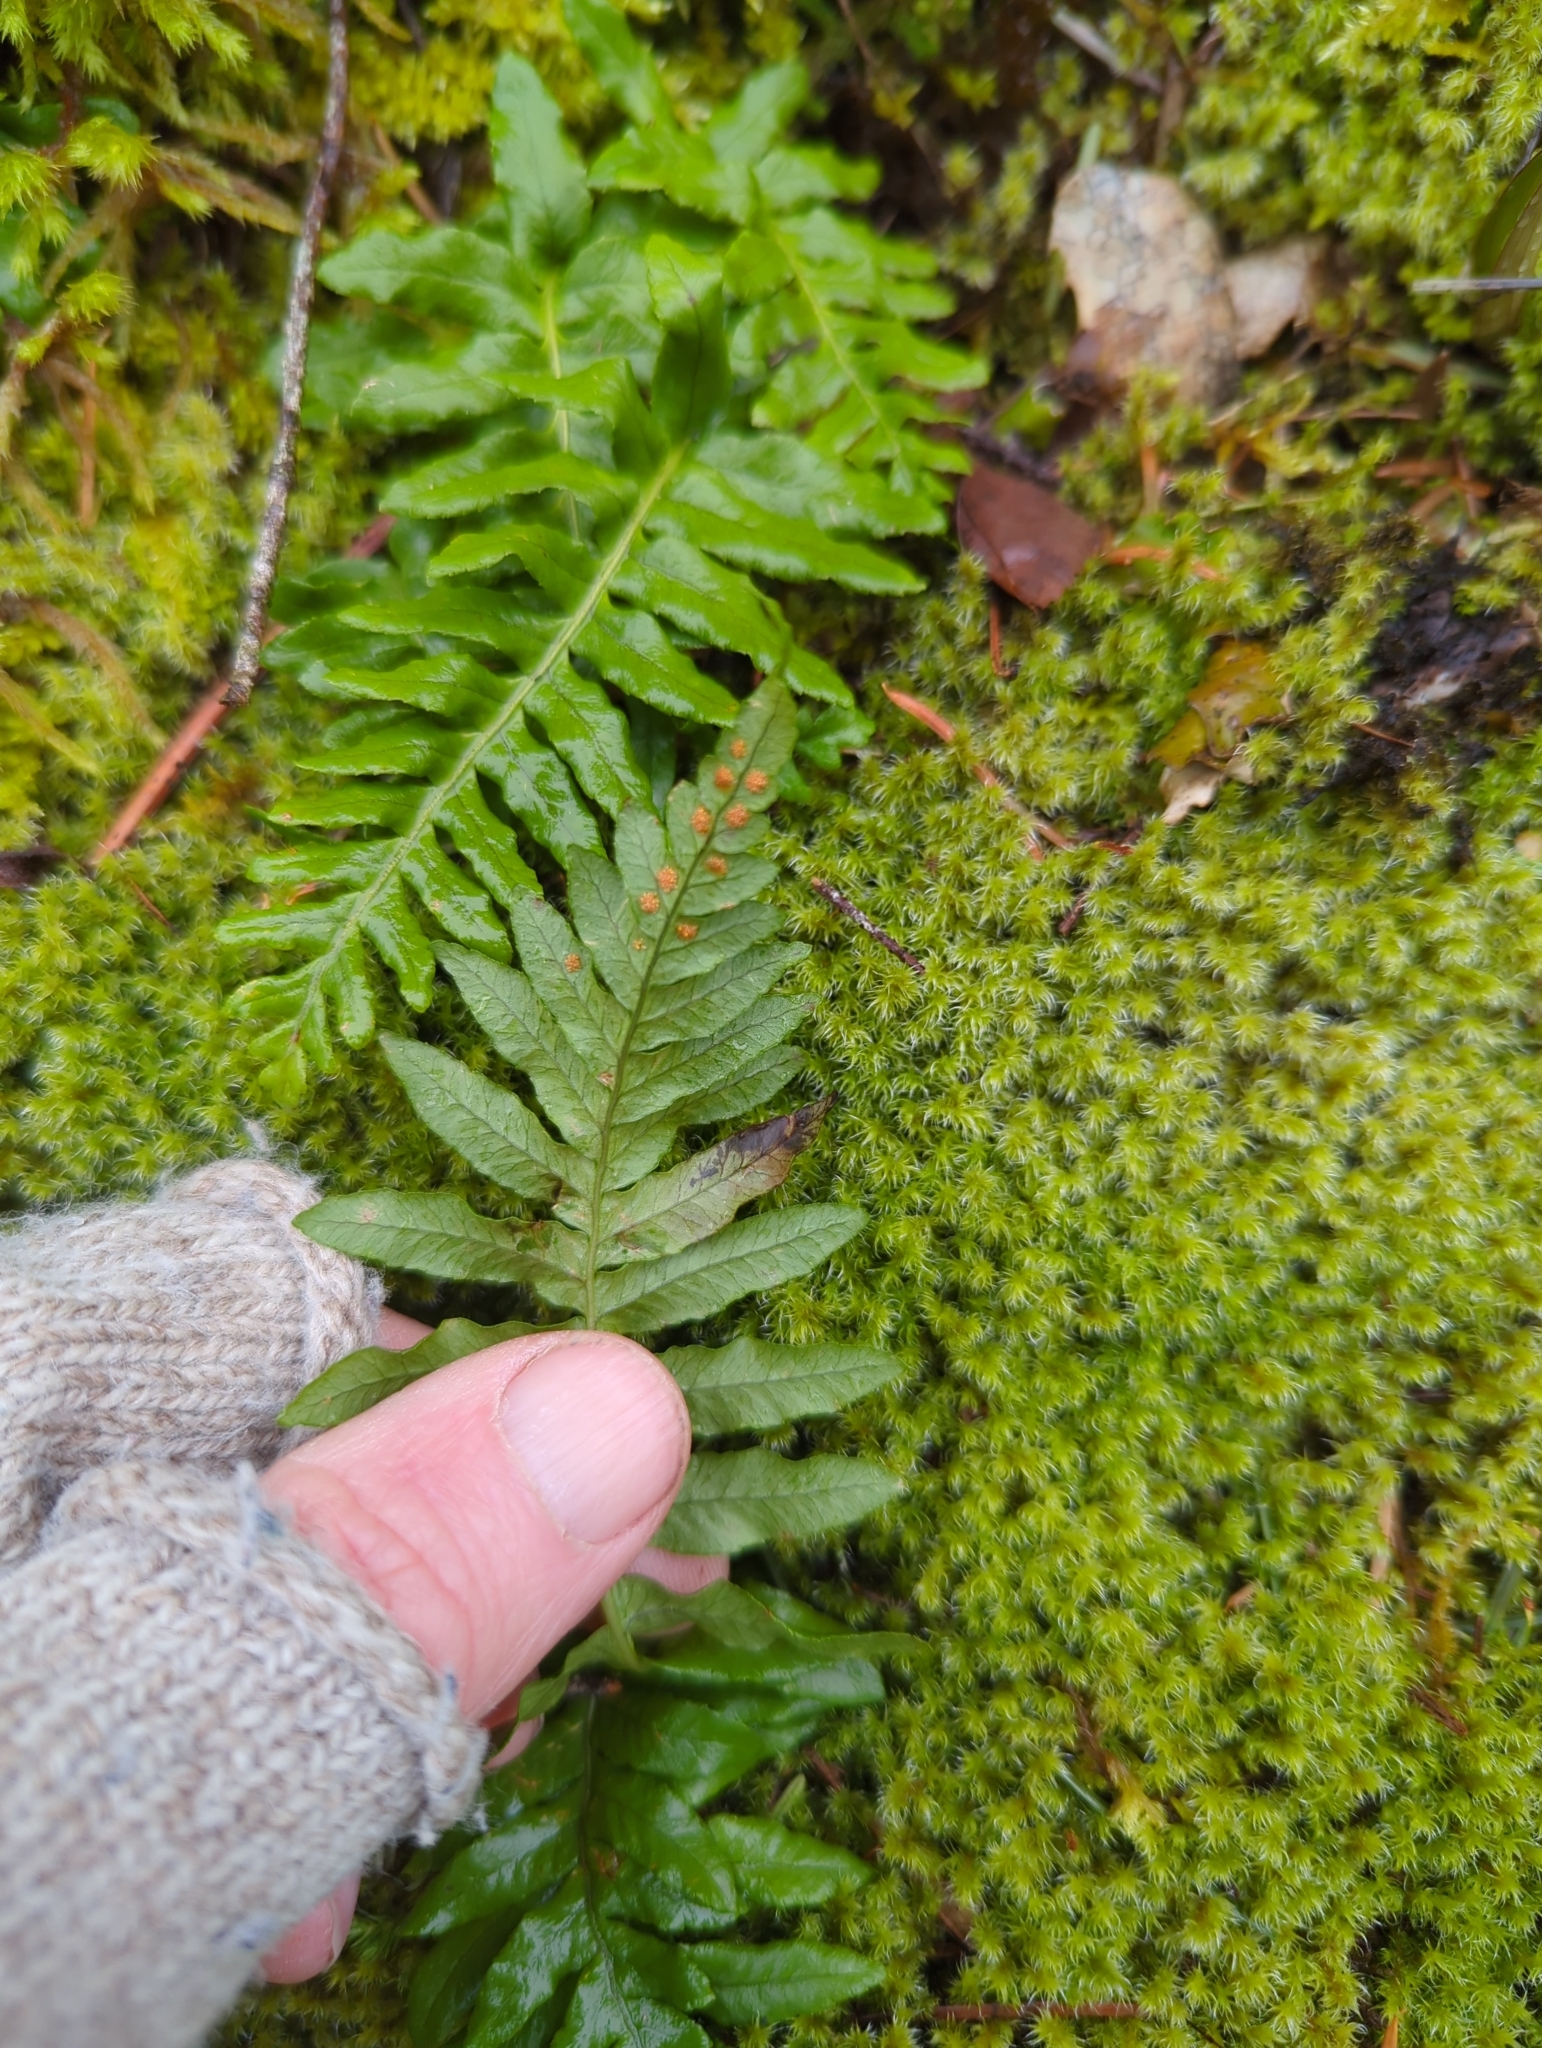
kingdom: Plantae
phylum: Tracheophyta
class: Polypodiopsida
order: Polypodiales
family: Polypodiaceae
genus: Polypodium
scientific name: Polypodium glycyrrhiza
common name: Licorice fern
